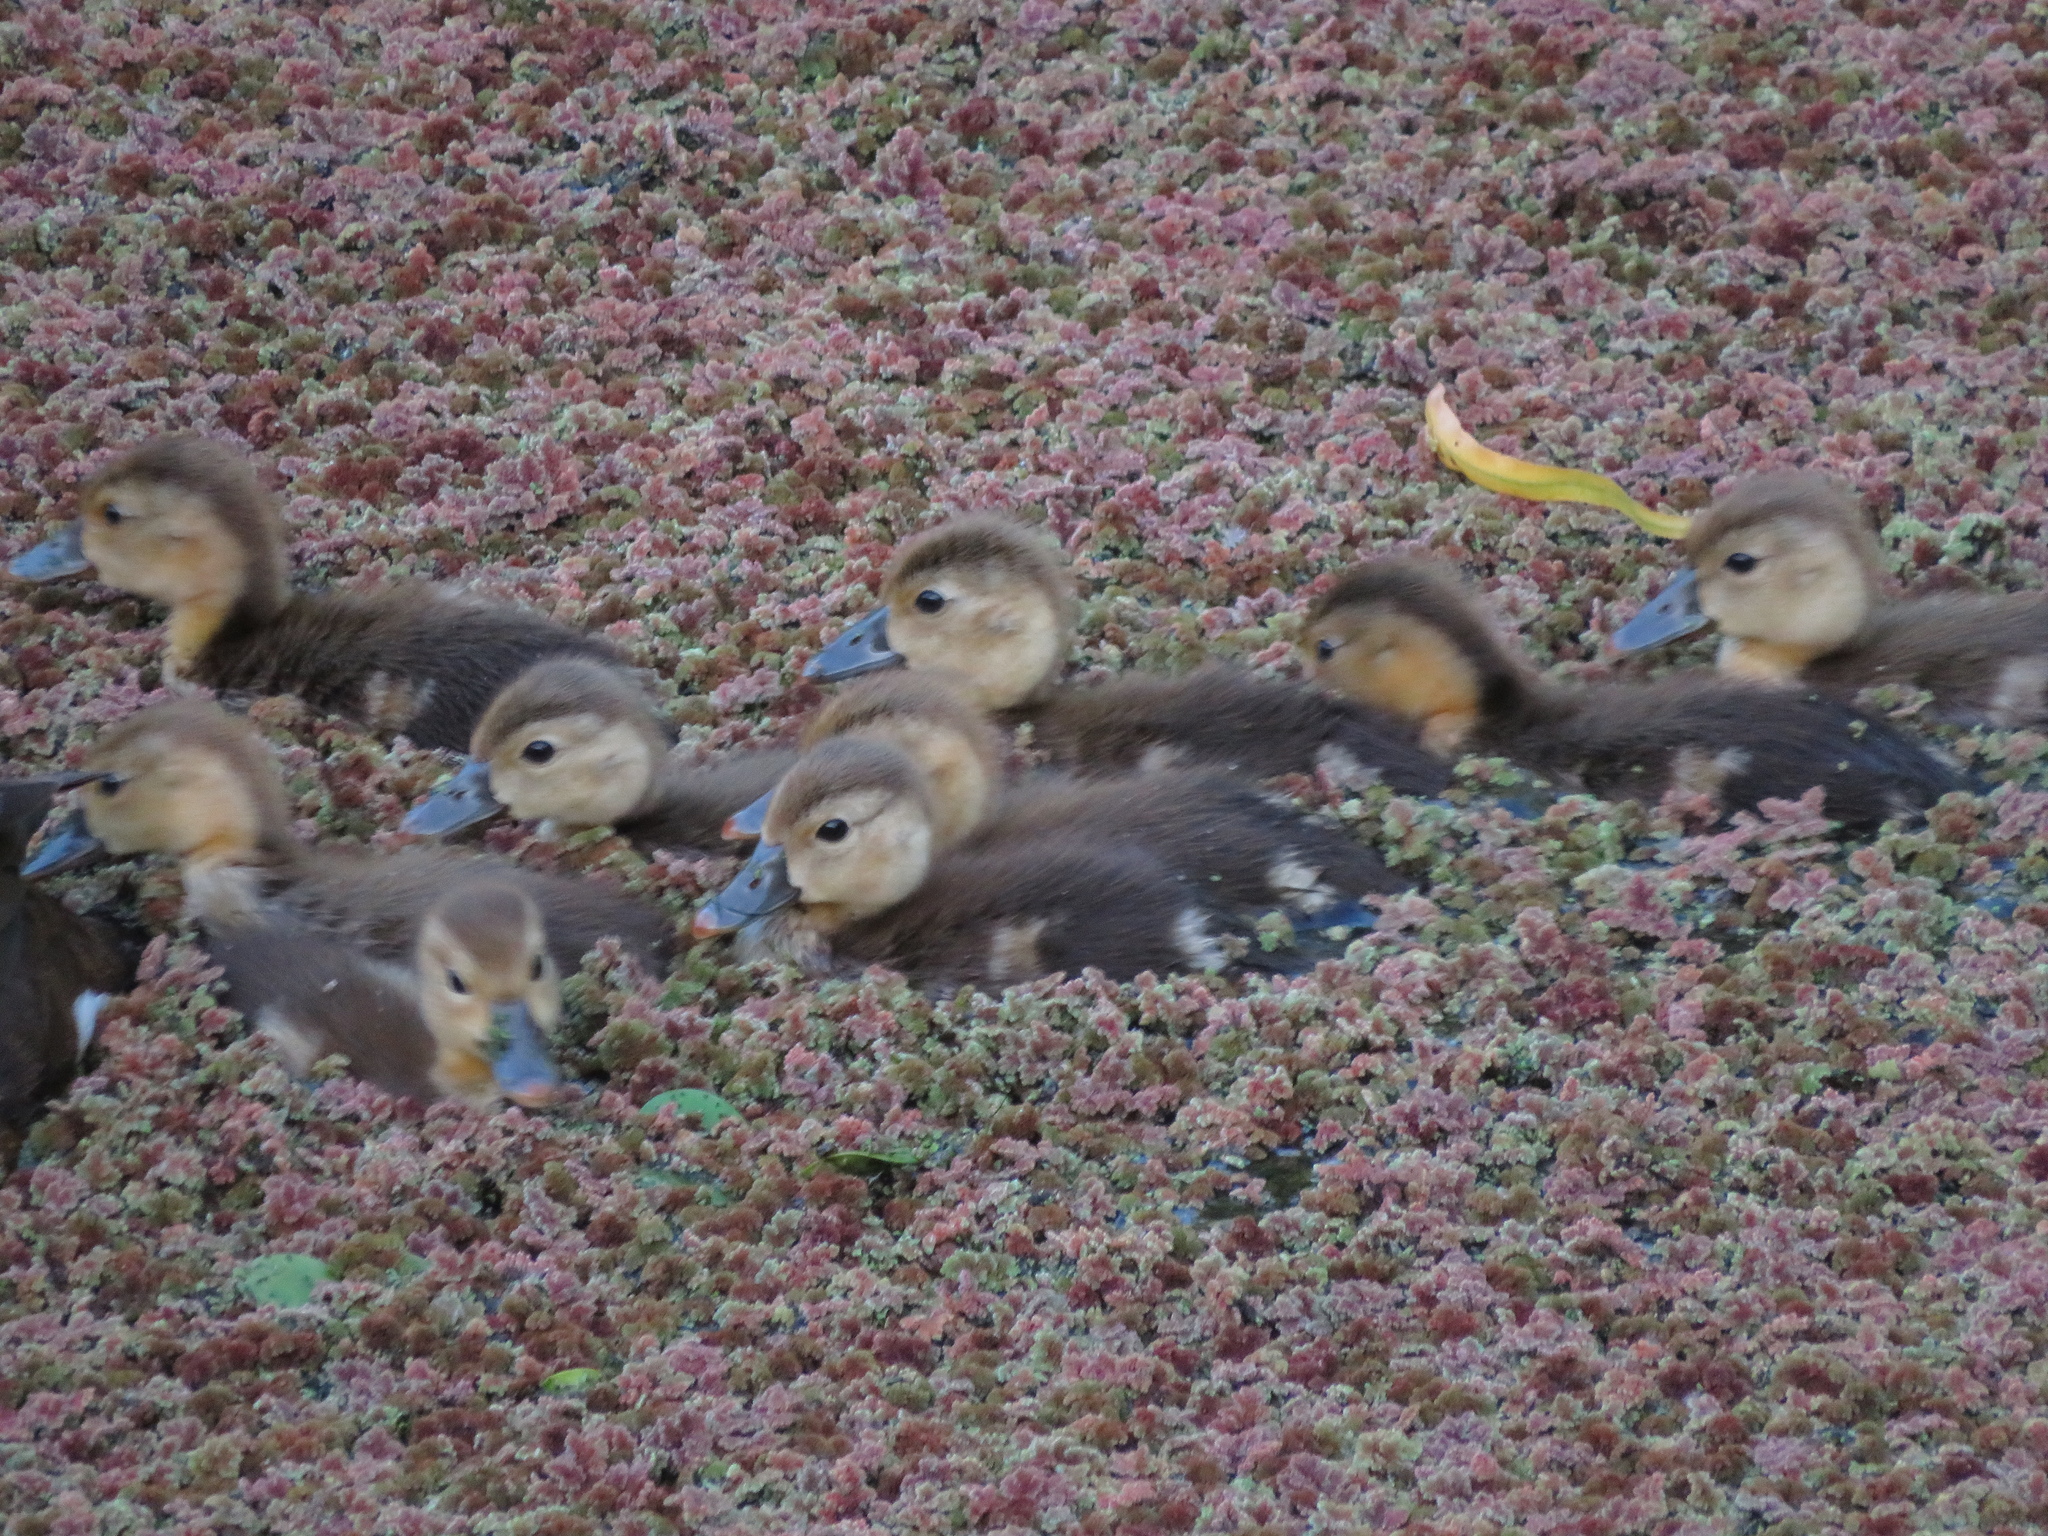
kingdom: Animalia
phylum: Chordata
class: Aves
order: Anseriformes
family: Anatidae
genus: Netta
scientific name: Netta peposaca
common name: Rosy-billed pochard
